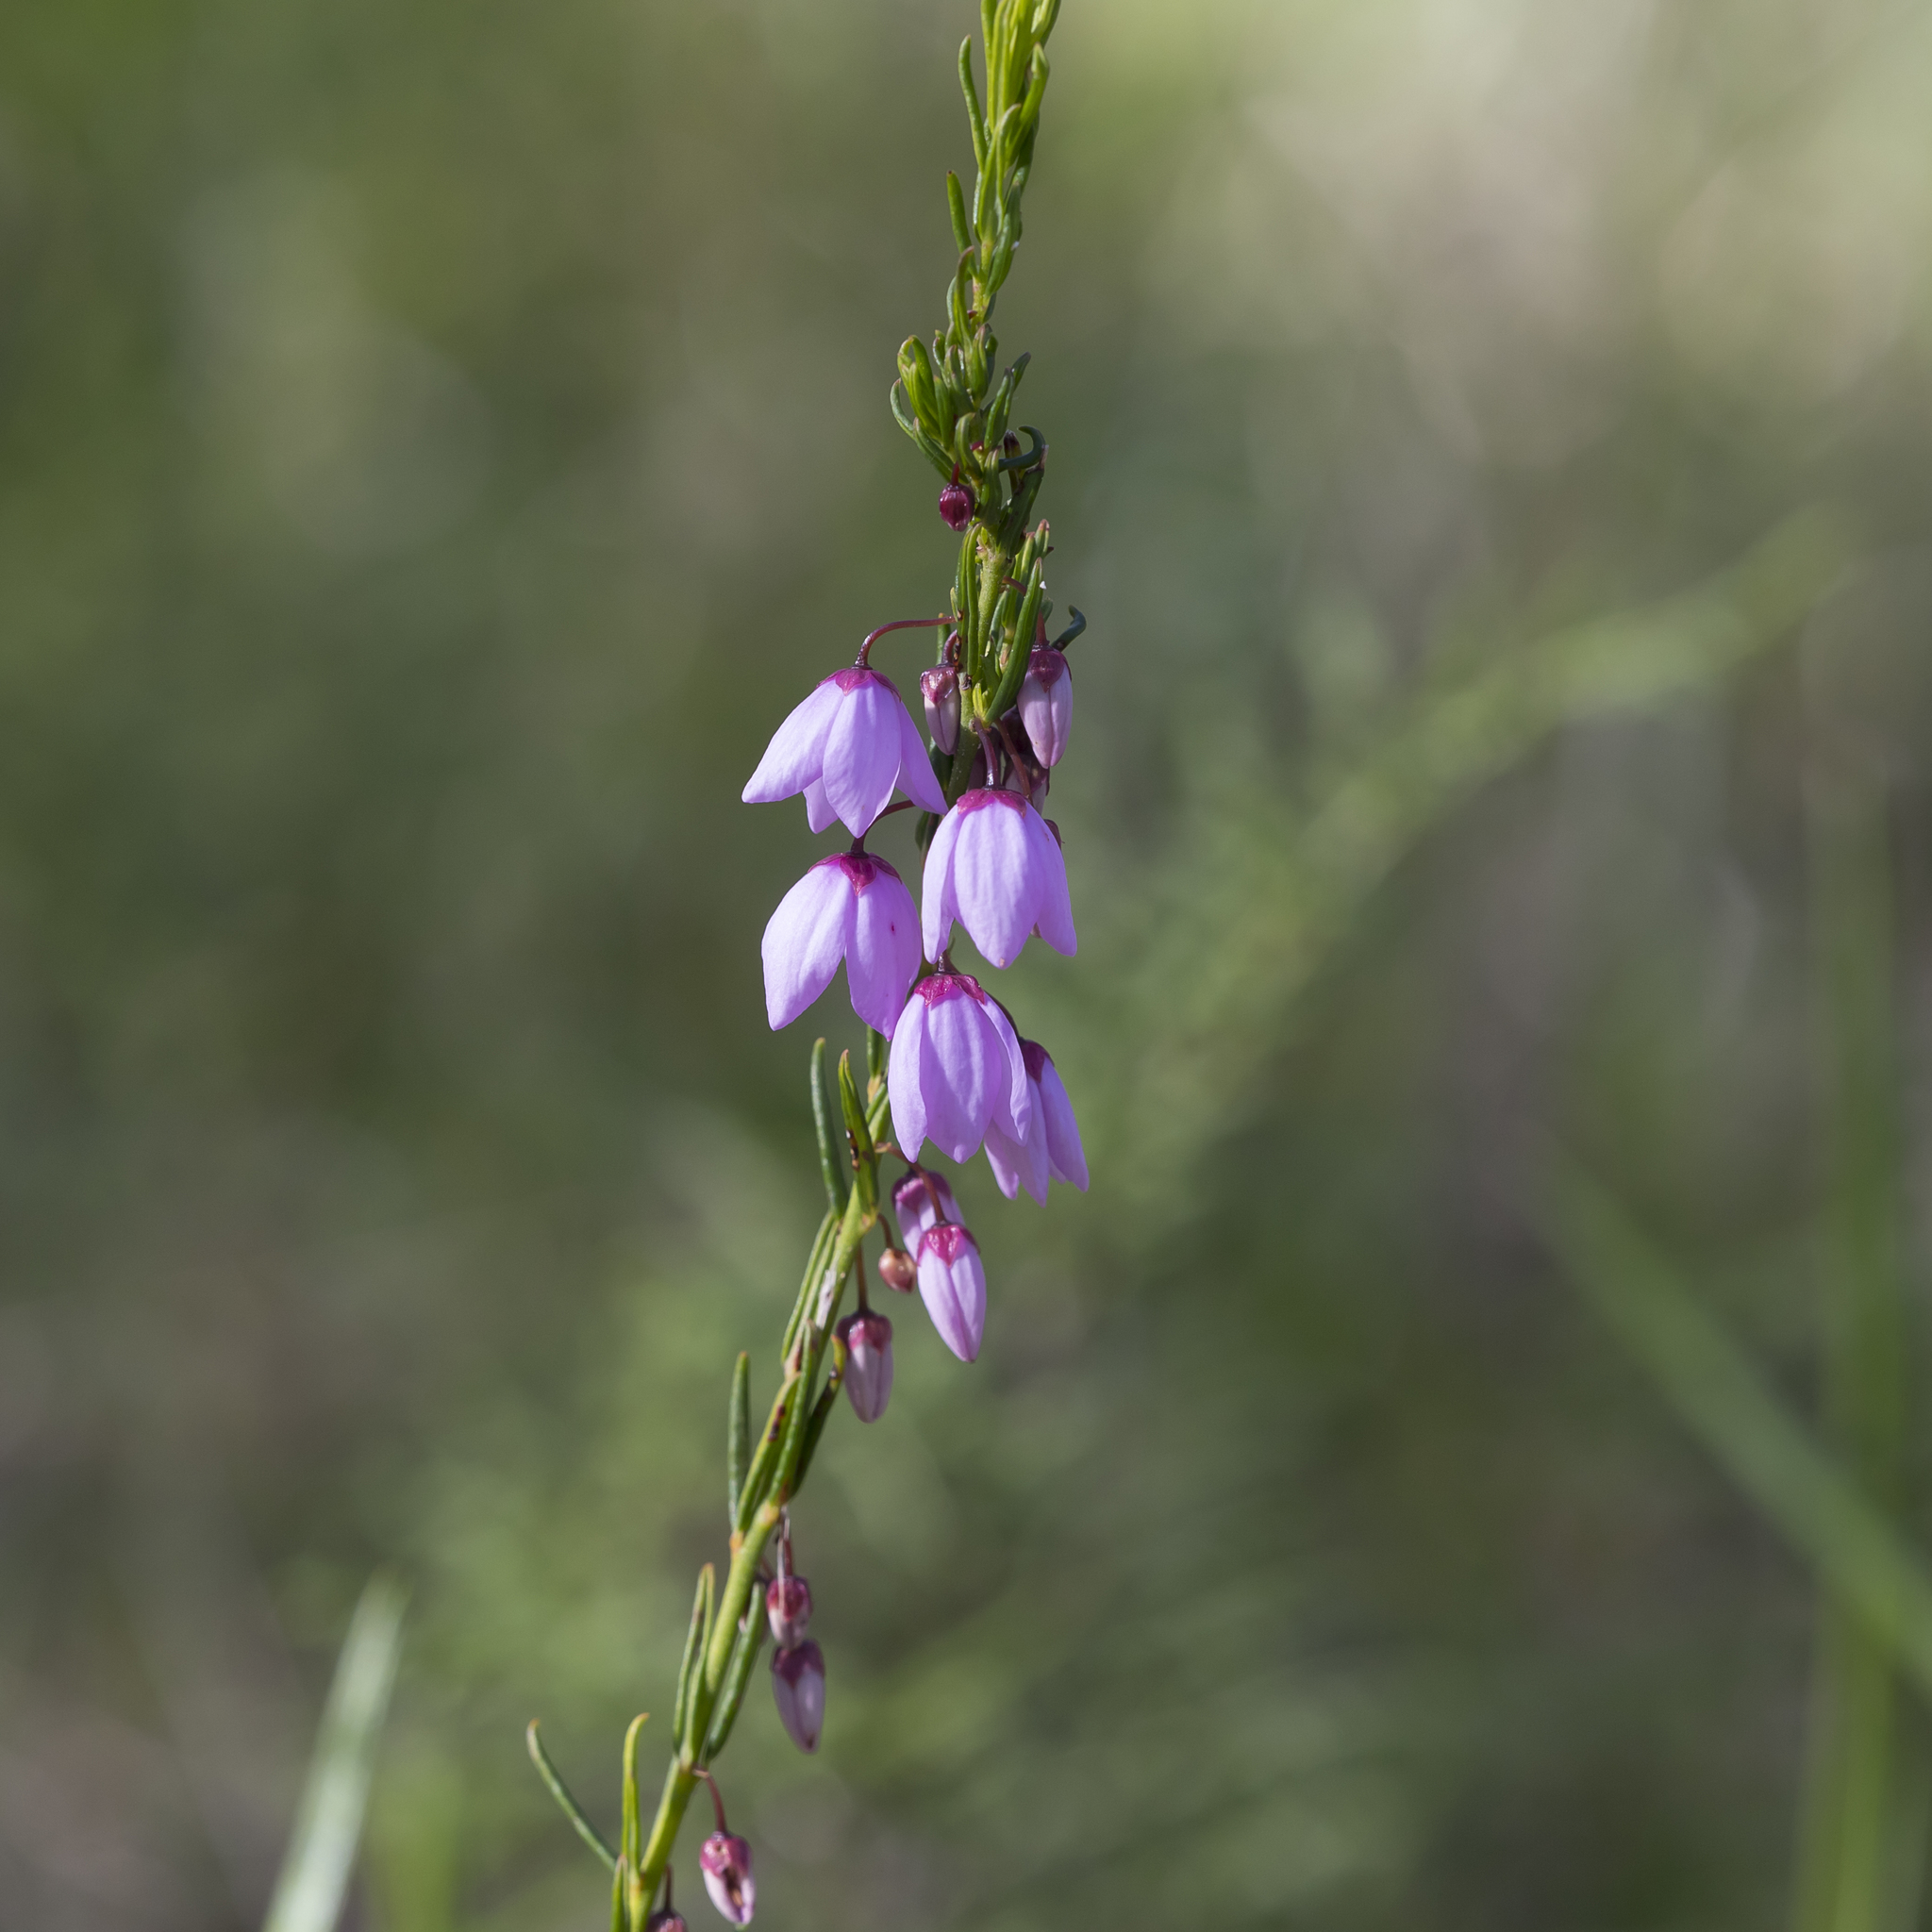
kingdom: Plantae
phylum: Tracheophyta
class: Magnoliopsida
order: Oxalidales
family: Elaeocarpaceae
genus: Tetratheca
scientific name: Tetratheca pilosa
